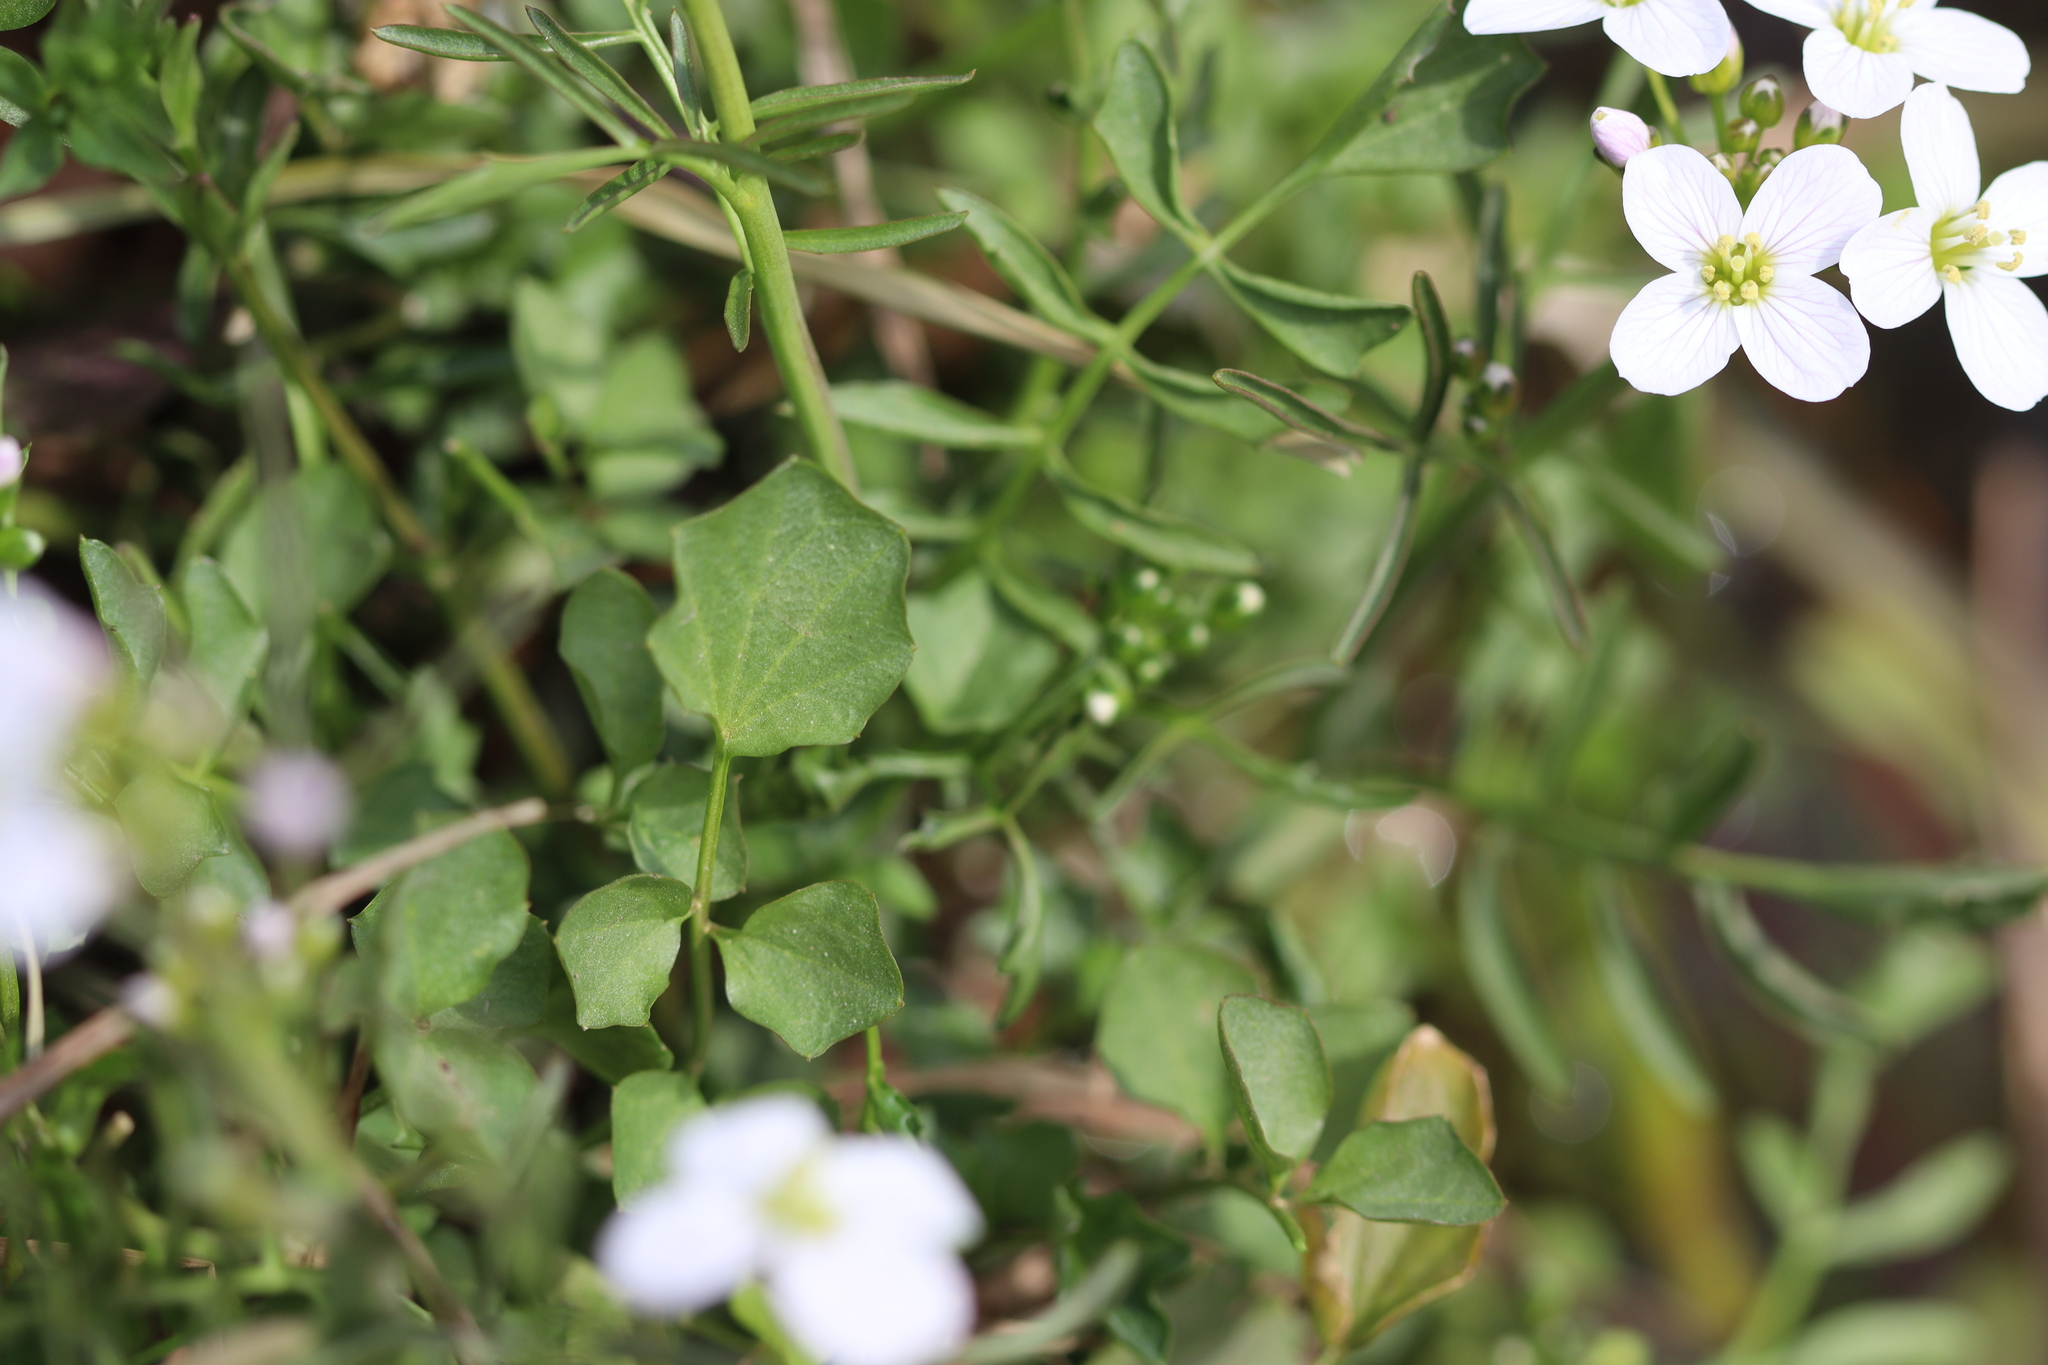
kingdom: Plantae
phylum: Tracheophyta
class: Magnoliopsida
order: Brassicales
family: Brassicaceae
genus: Cardamine
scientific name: Cardamine hirsuta
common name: Hairy bittercress
